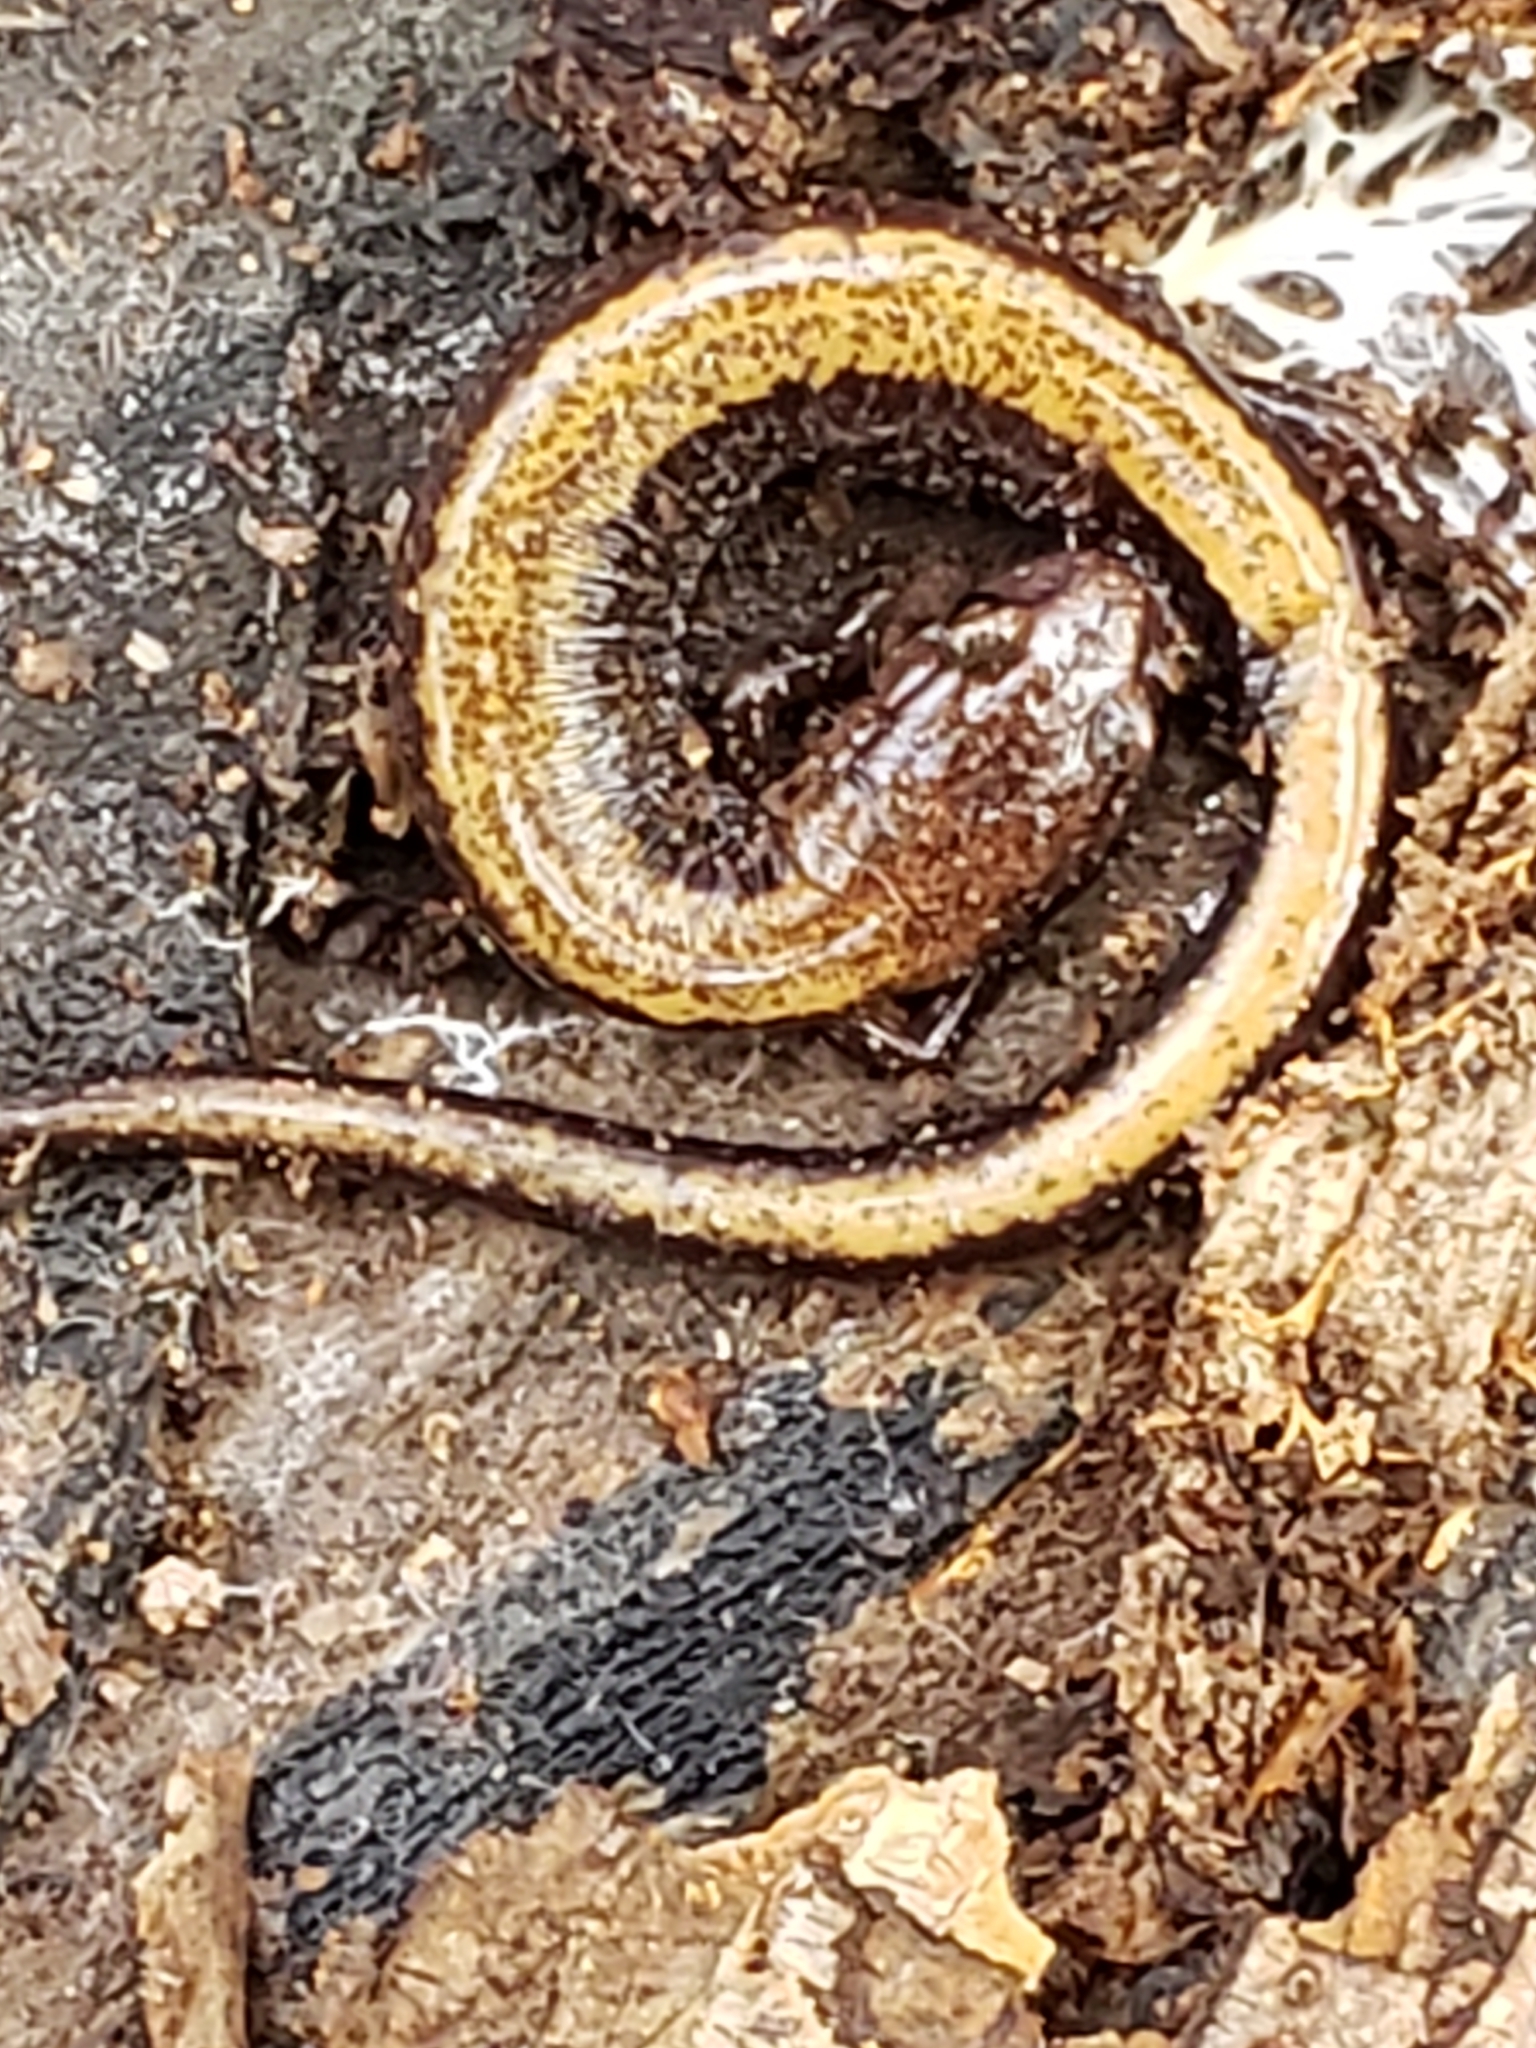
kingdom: Animalia
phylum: Chordata
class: Amphibia
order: Caudata
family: Plethodontidae
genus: Plethodon
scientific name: Plethodon cinereus
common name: Redback salamander
